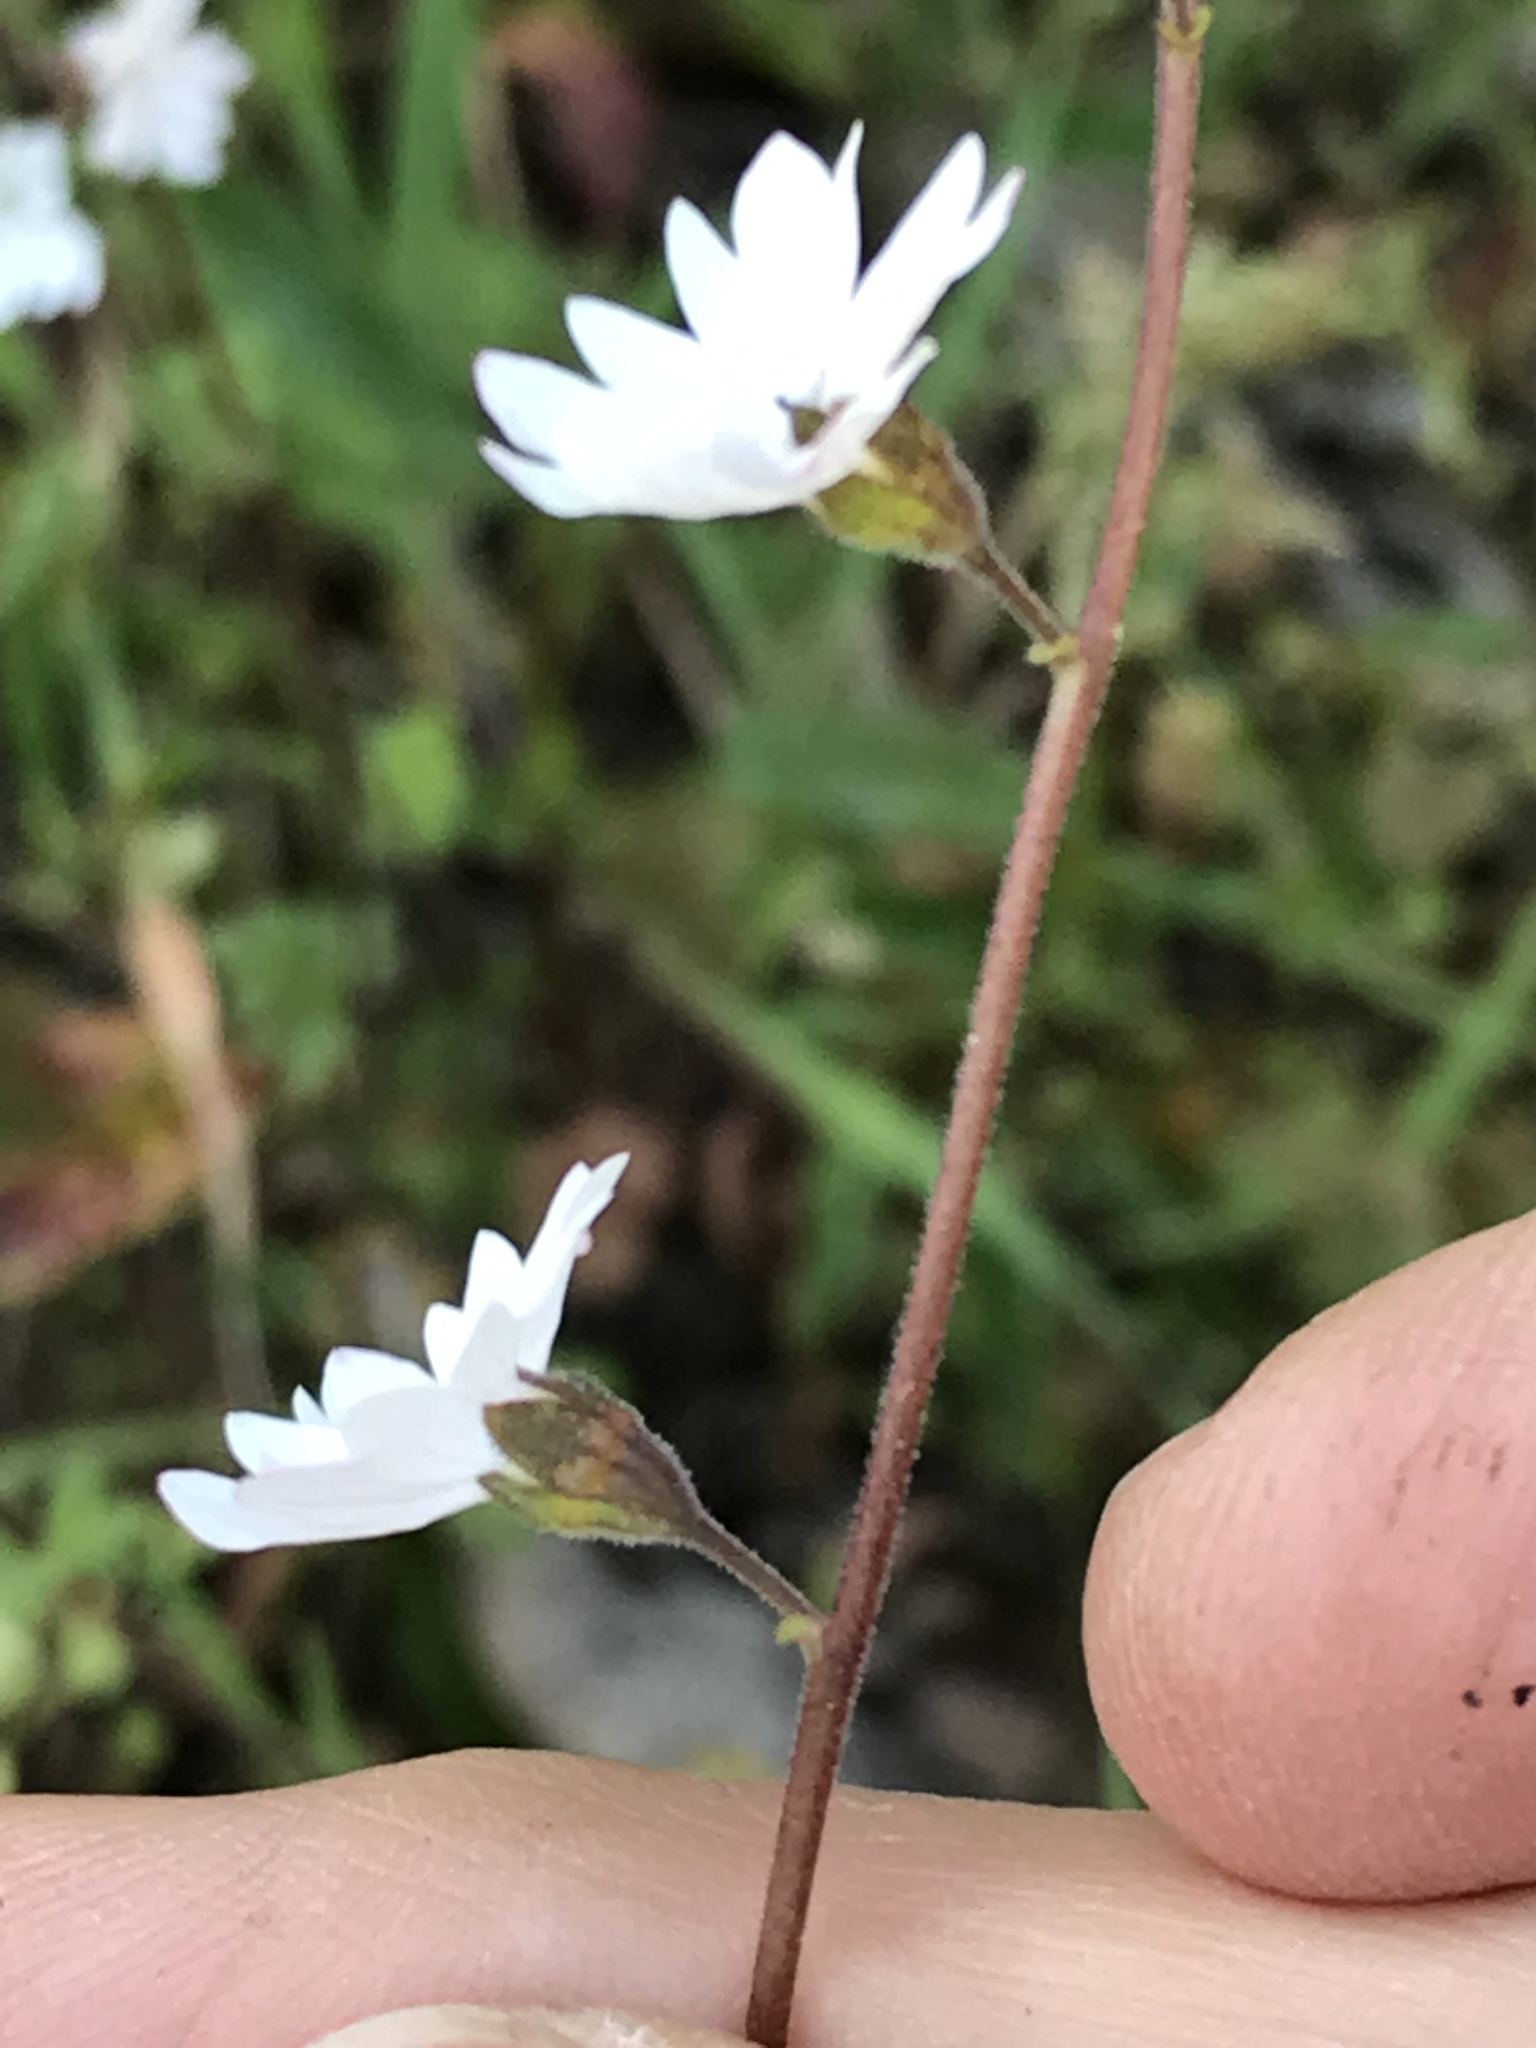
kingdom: Plantae
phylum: Tracheophyta
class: Magnoliopsida
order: Saxifragales
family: Saxifragaceae
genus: Lithophragma
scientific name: Lithophragma affine
